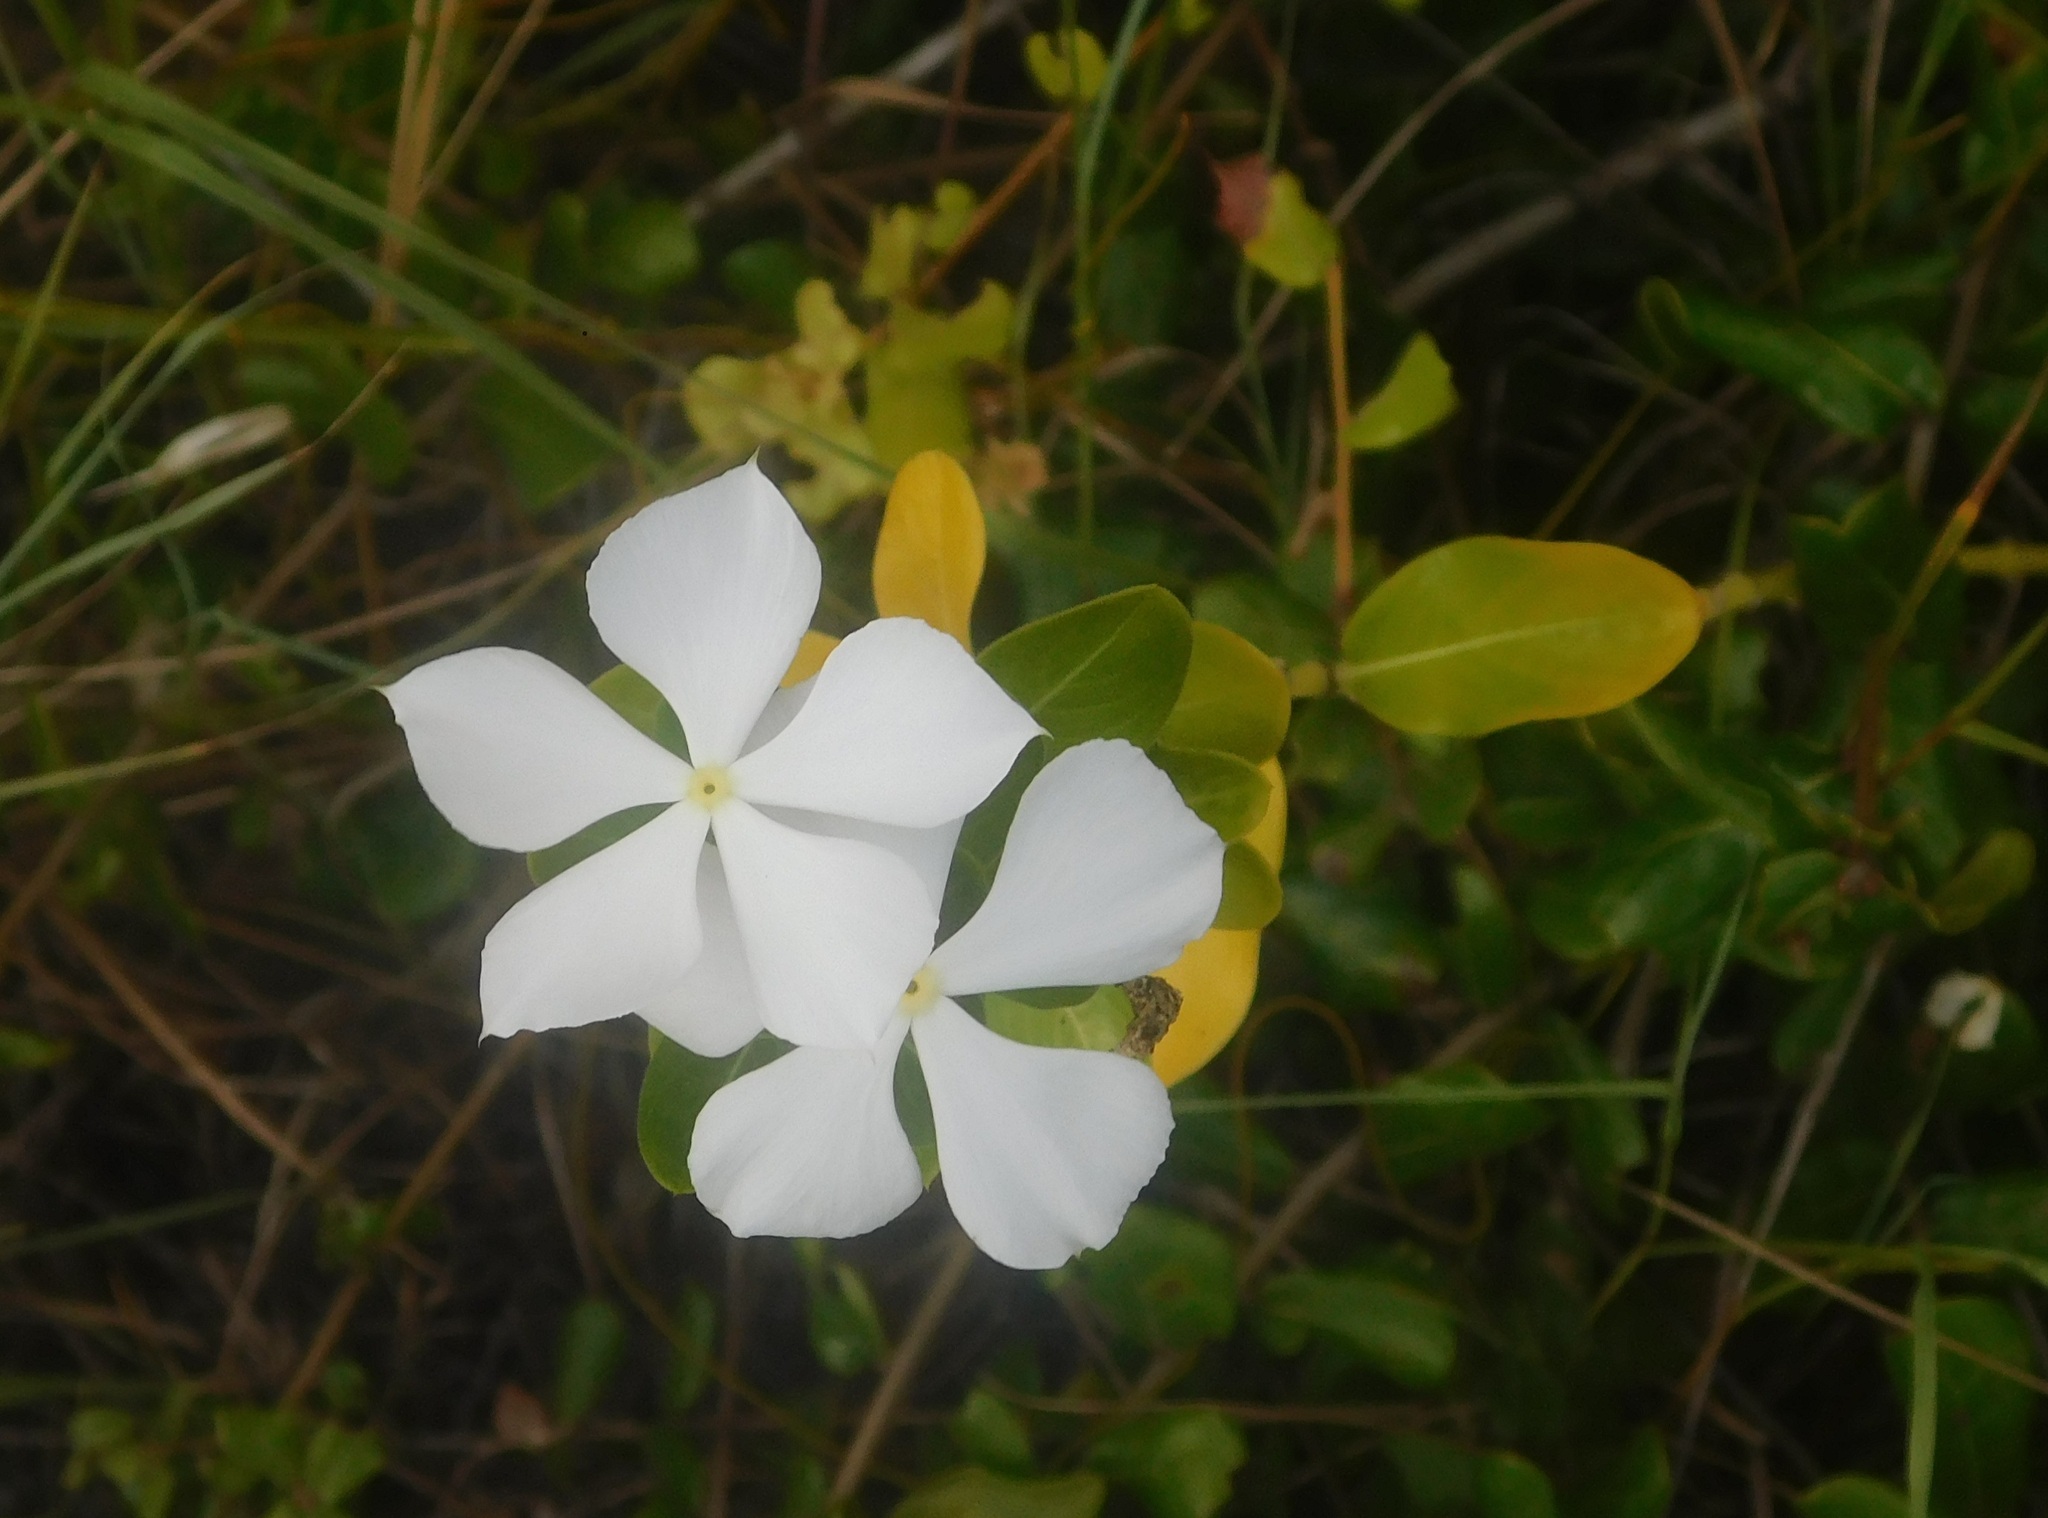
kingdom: Plantae
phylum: Tracheophyta
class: Magnoliopsida
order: Gentianales
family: Apocynaceae
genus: Catharanthus
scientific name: Catharanthus roseus
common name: Madagascar periwinkle
